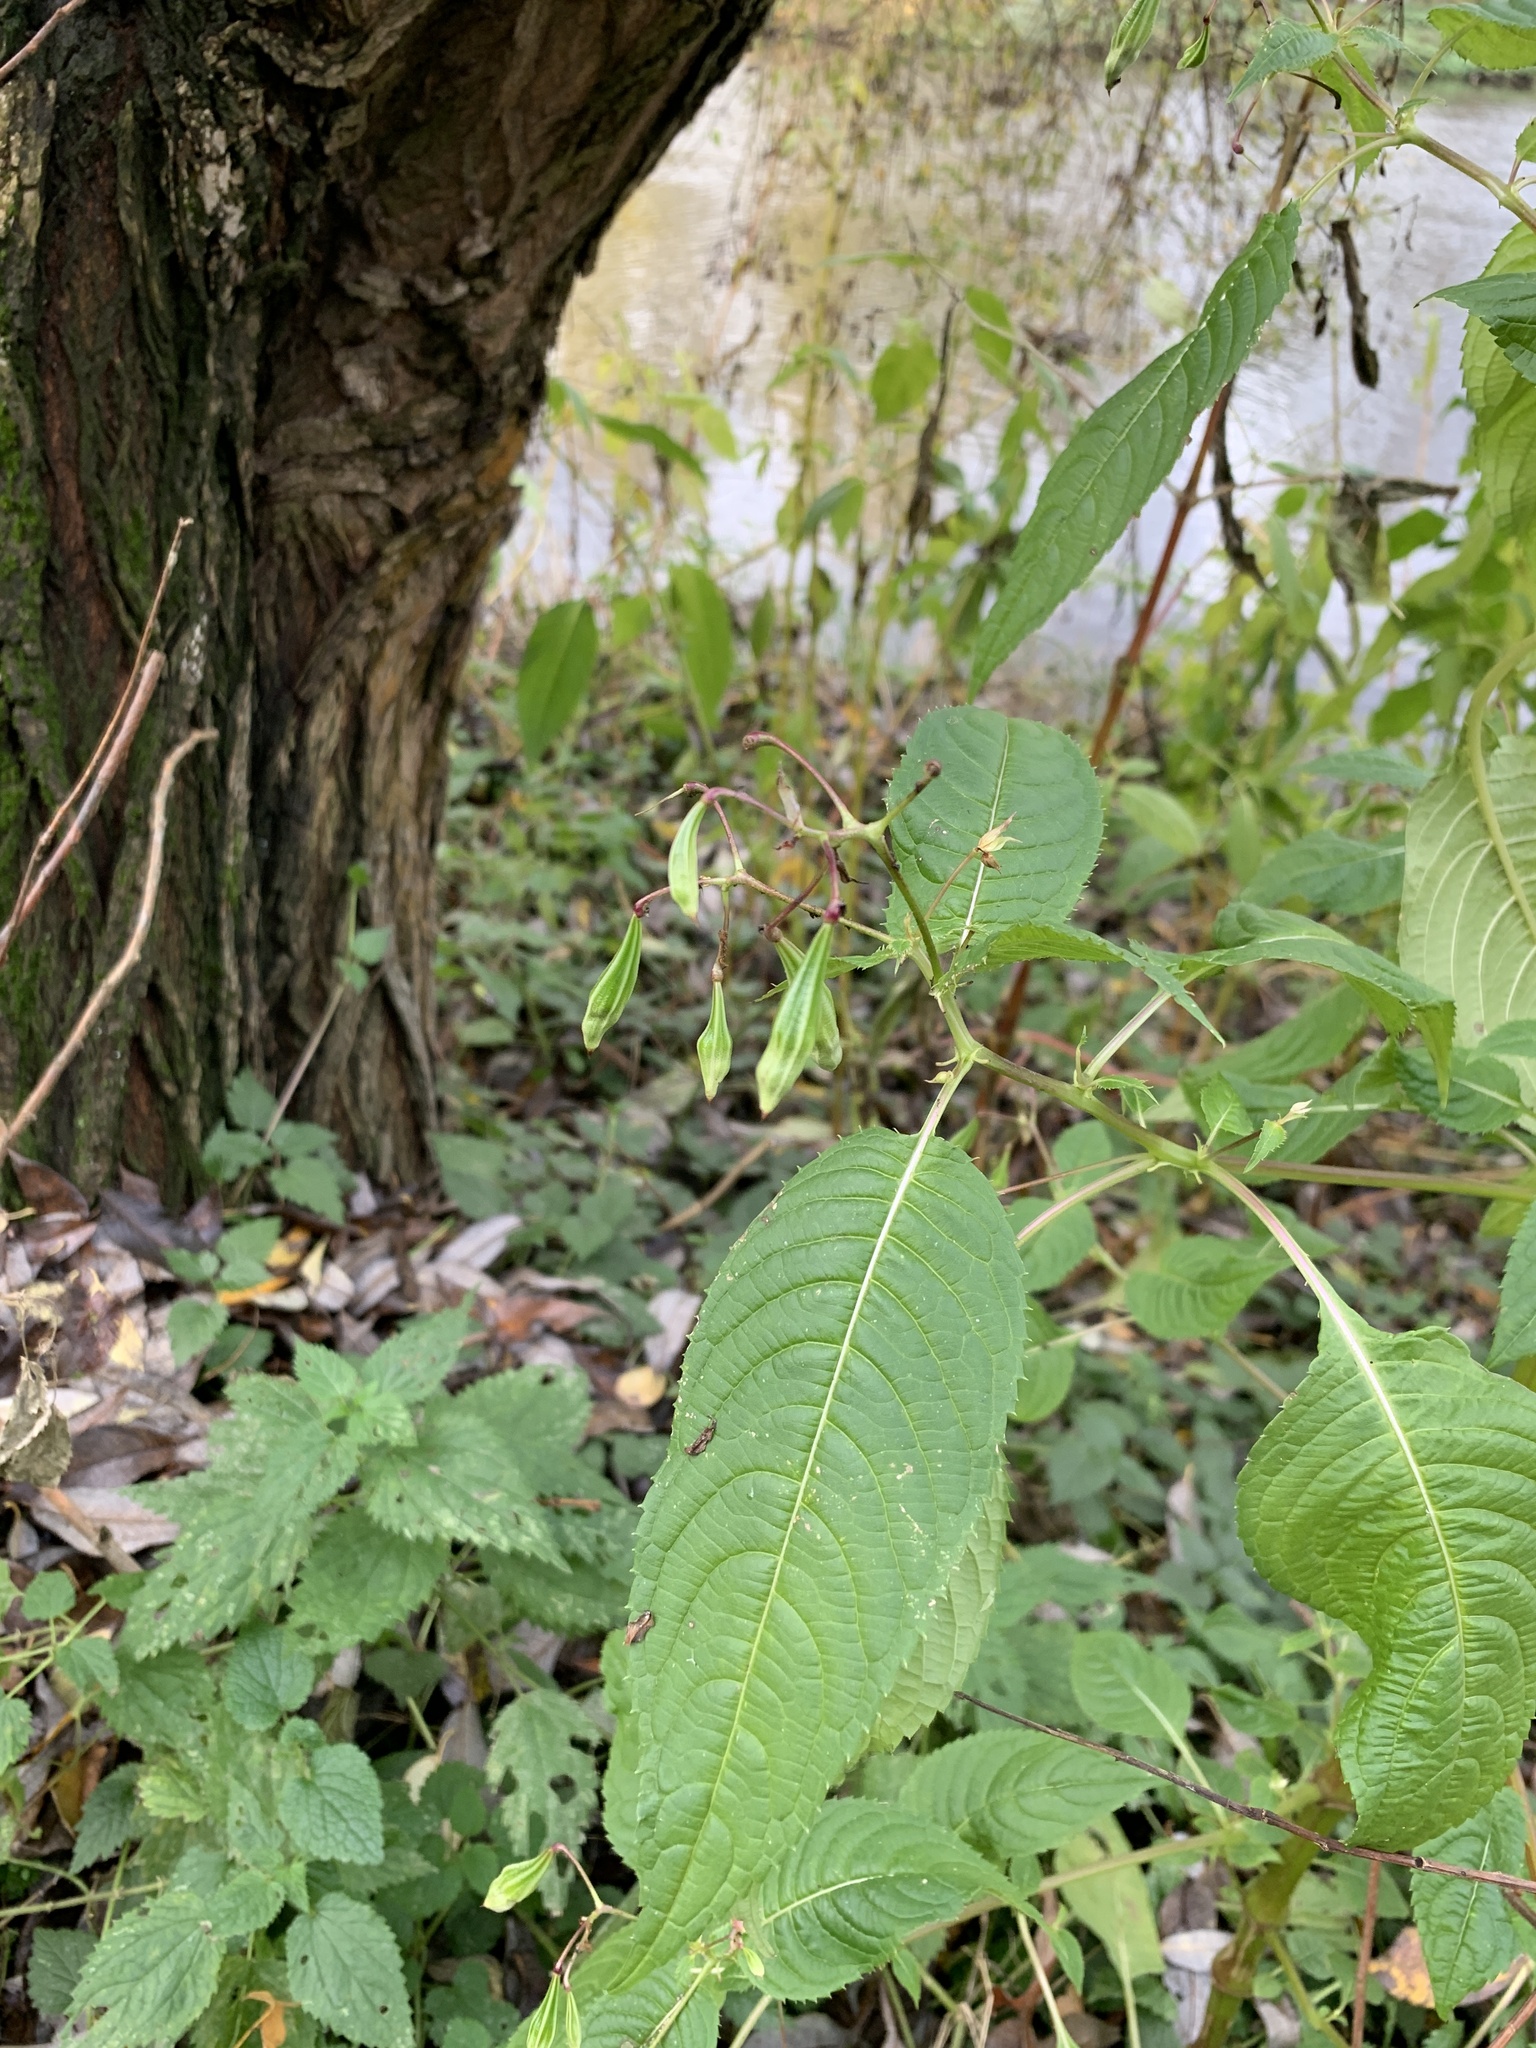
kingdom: Plantae
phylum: Tracheophyta
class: Magnoliopsida
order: Ericales
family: Balsaminaceae
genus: Impatiens
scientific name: Impatiens glandulifera
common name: Himalayan balsam
